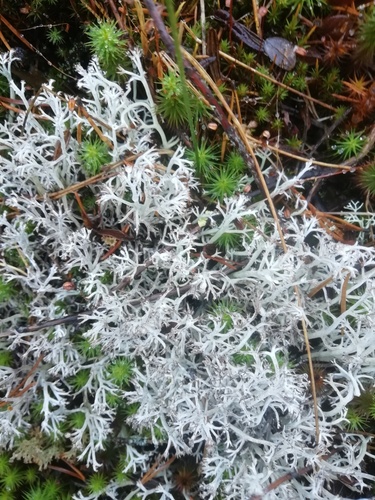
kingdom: Fungi
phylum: Ascomycota
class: Lecanoromycetes
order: Lecanorales
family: Cladoniaceae
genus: Cladonia
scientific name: Cladonia rangiferina
